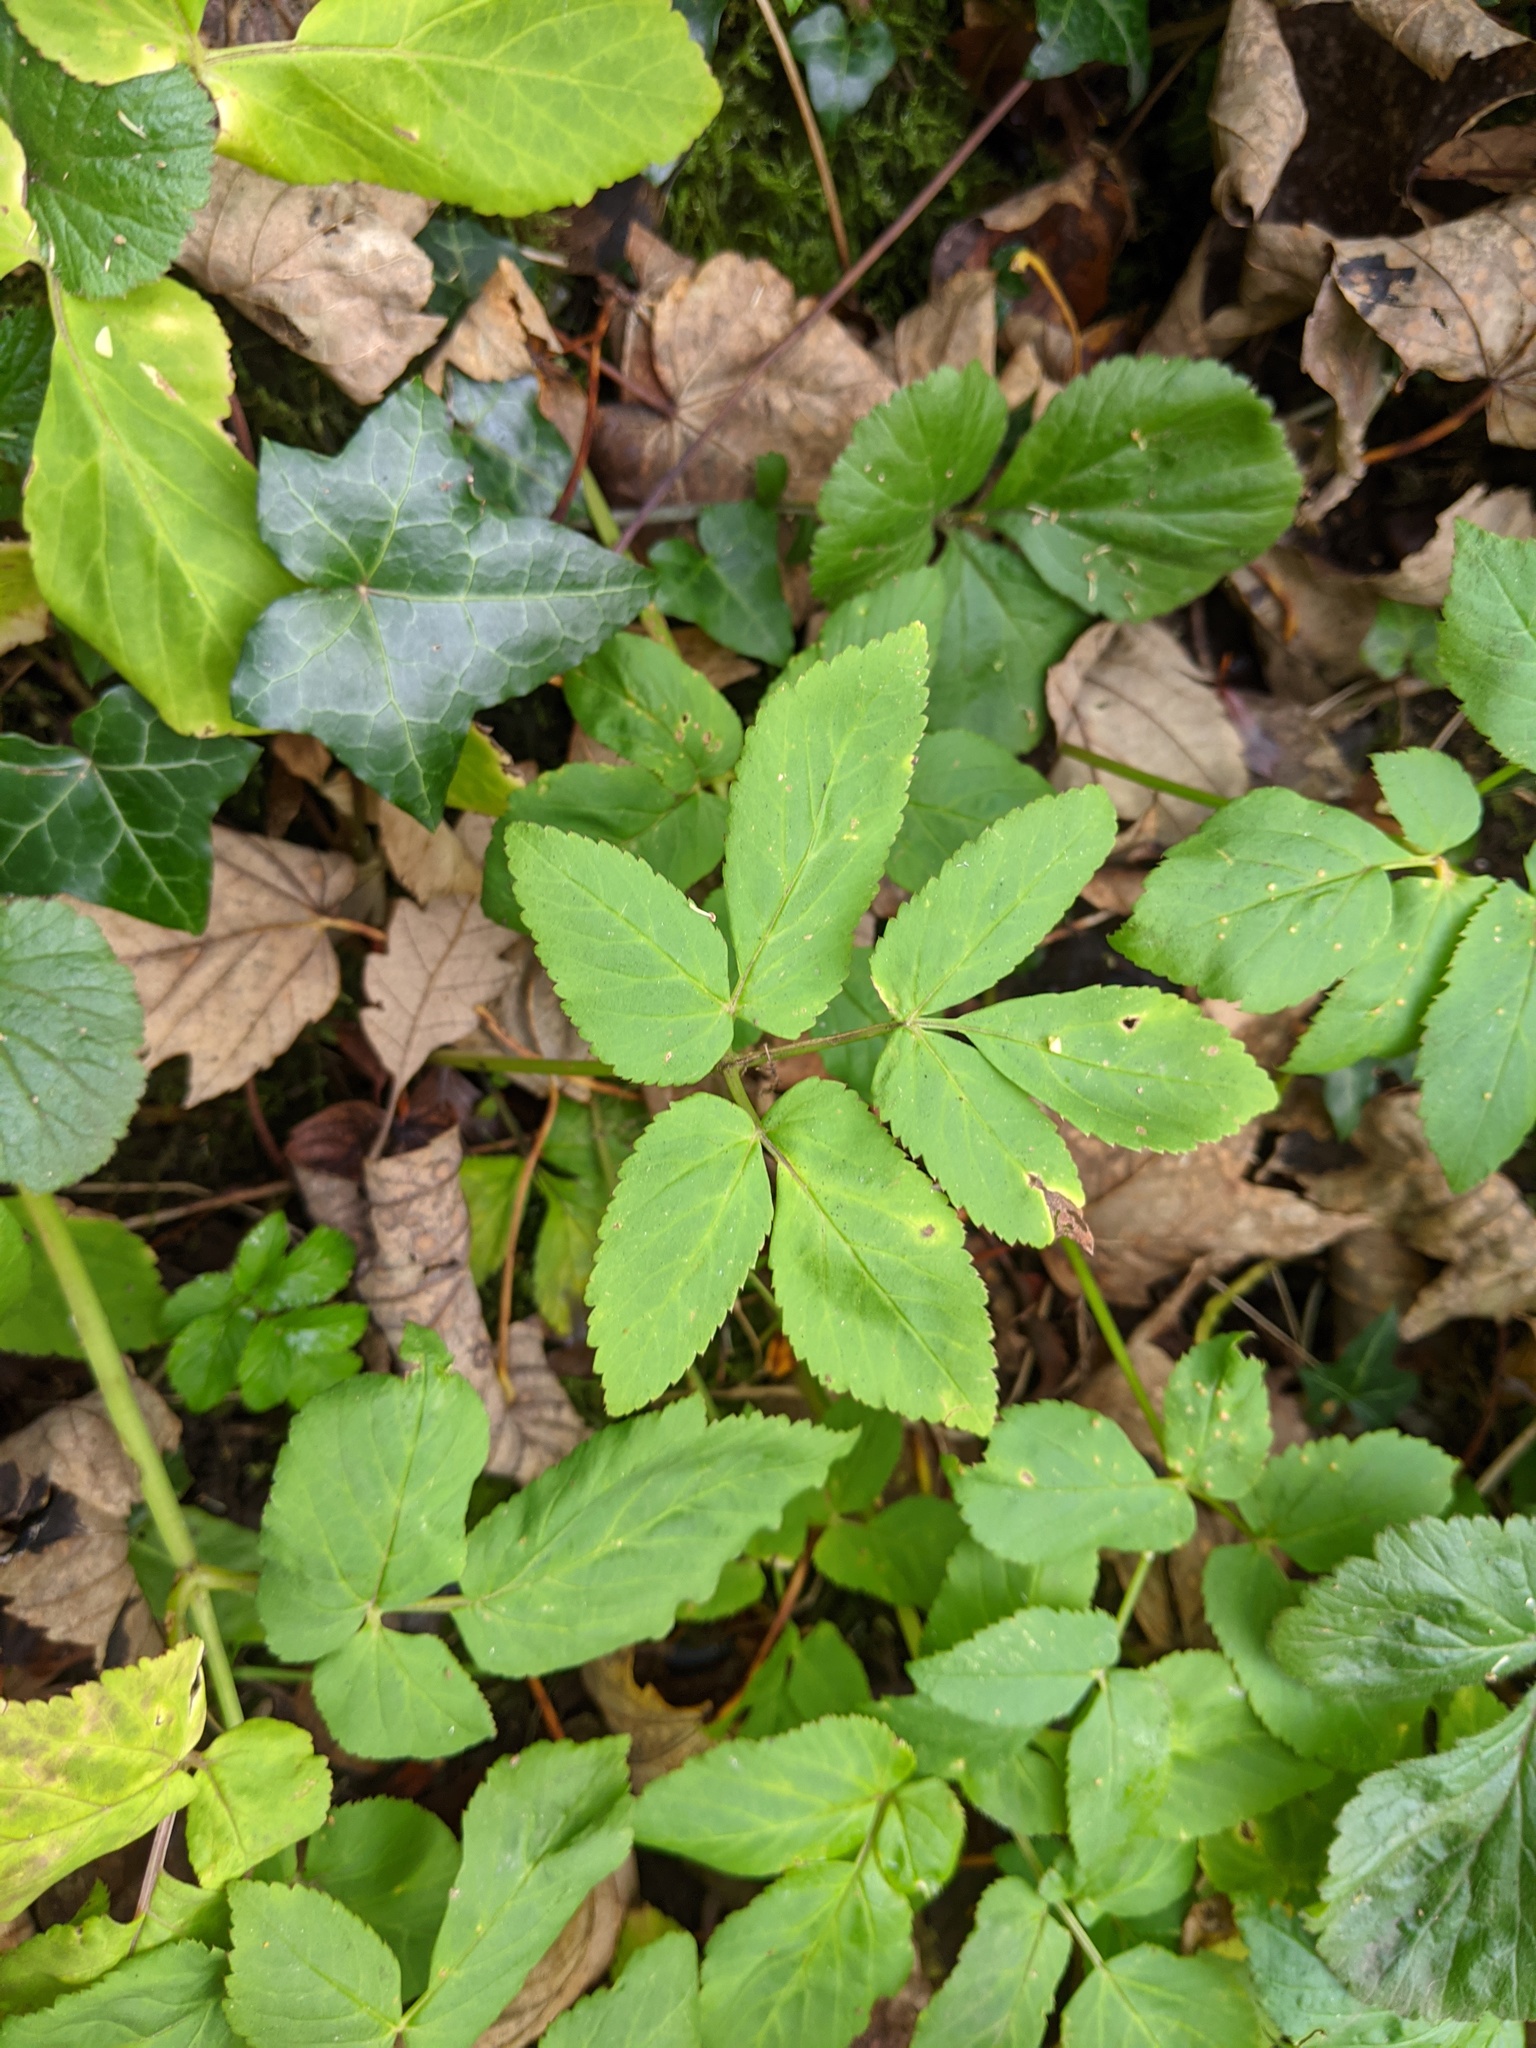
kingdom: Plantae
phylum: Tracheophyta
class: Magnoliopsida
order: Apiales
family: Apiaceae
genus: Aegopodium
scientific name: Aegopodium podagraria
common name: Ground-elder
